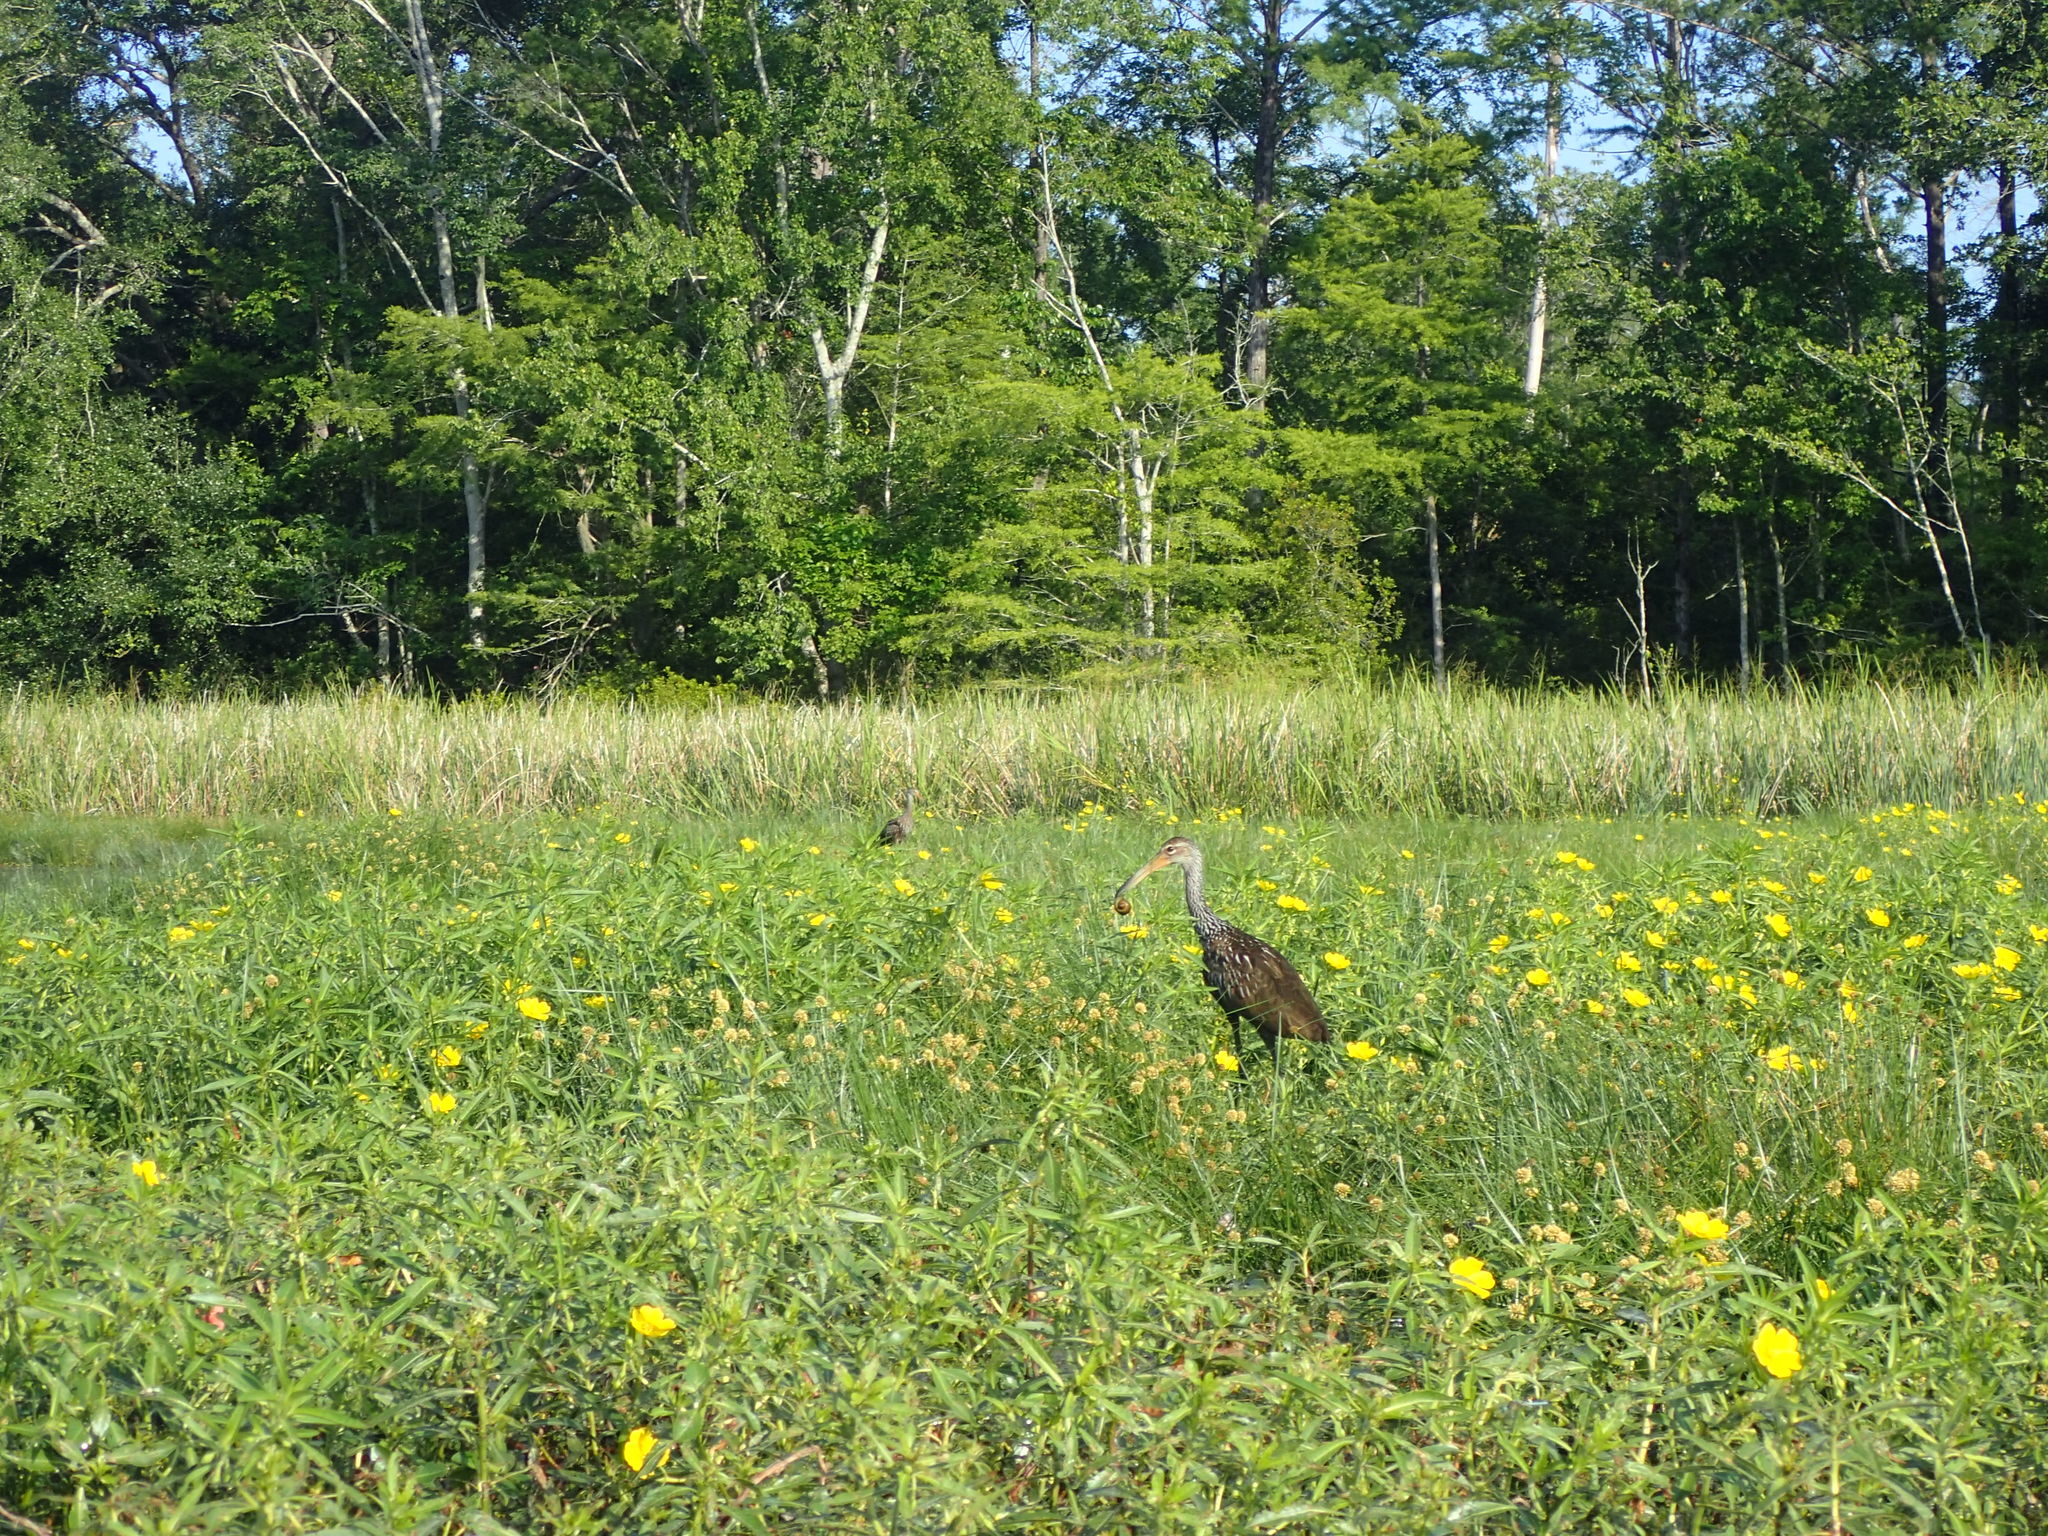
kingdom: Animalia
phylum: Chordata
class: Aves
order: Gruiformes
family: Aramidae
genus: Aramus
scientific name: Aramus guarauna
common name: Limpkin
